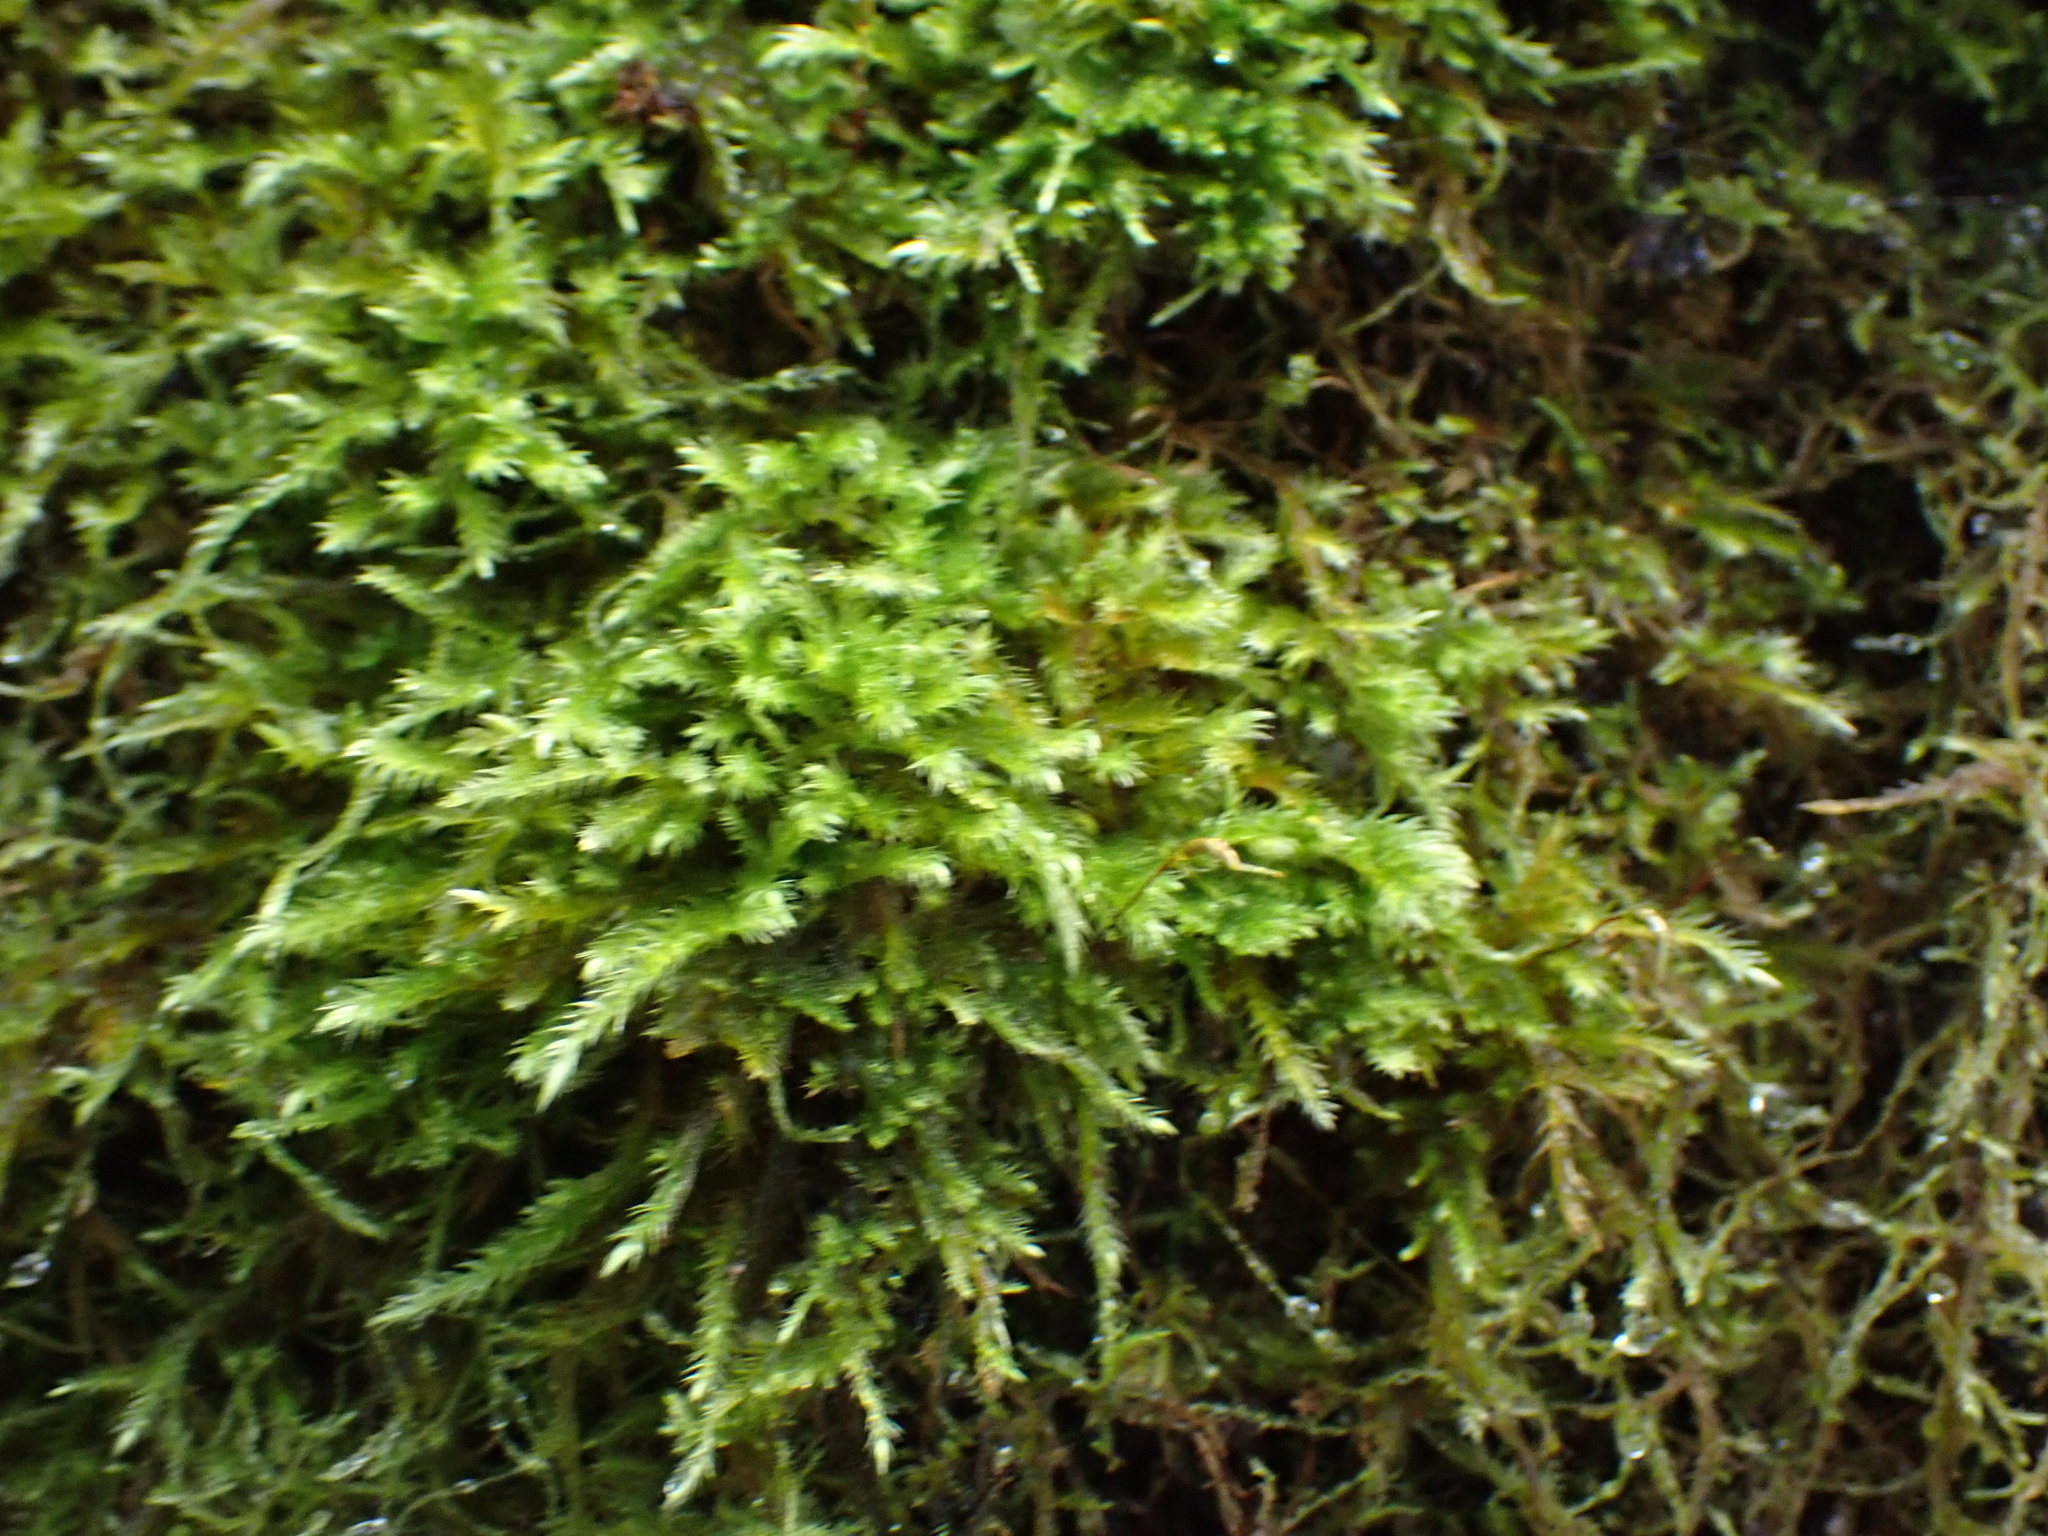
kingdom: Plantae
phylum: Bryophyta
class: Bryopsida
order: Hypnales
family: Brachytheciaceae
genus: Homalothecium
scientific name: Homalothecium fulgescens
